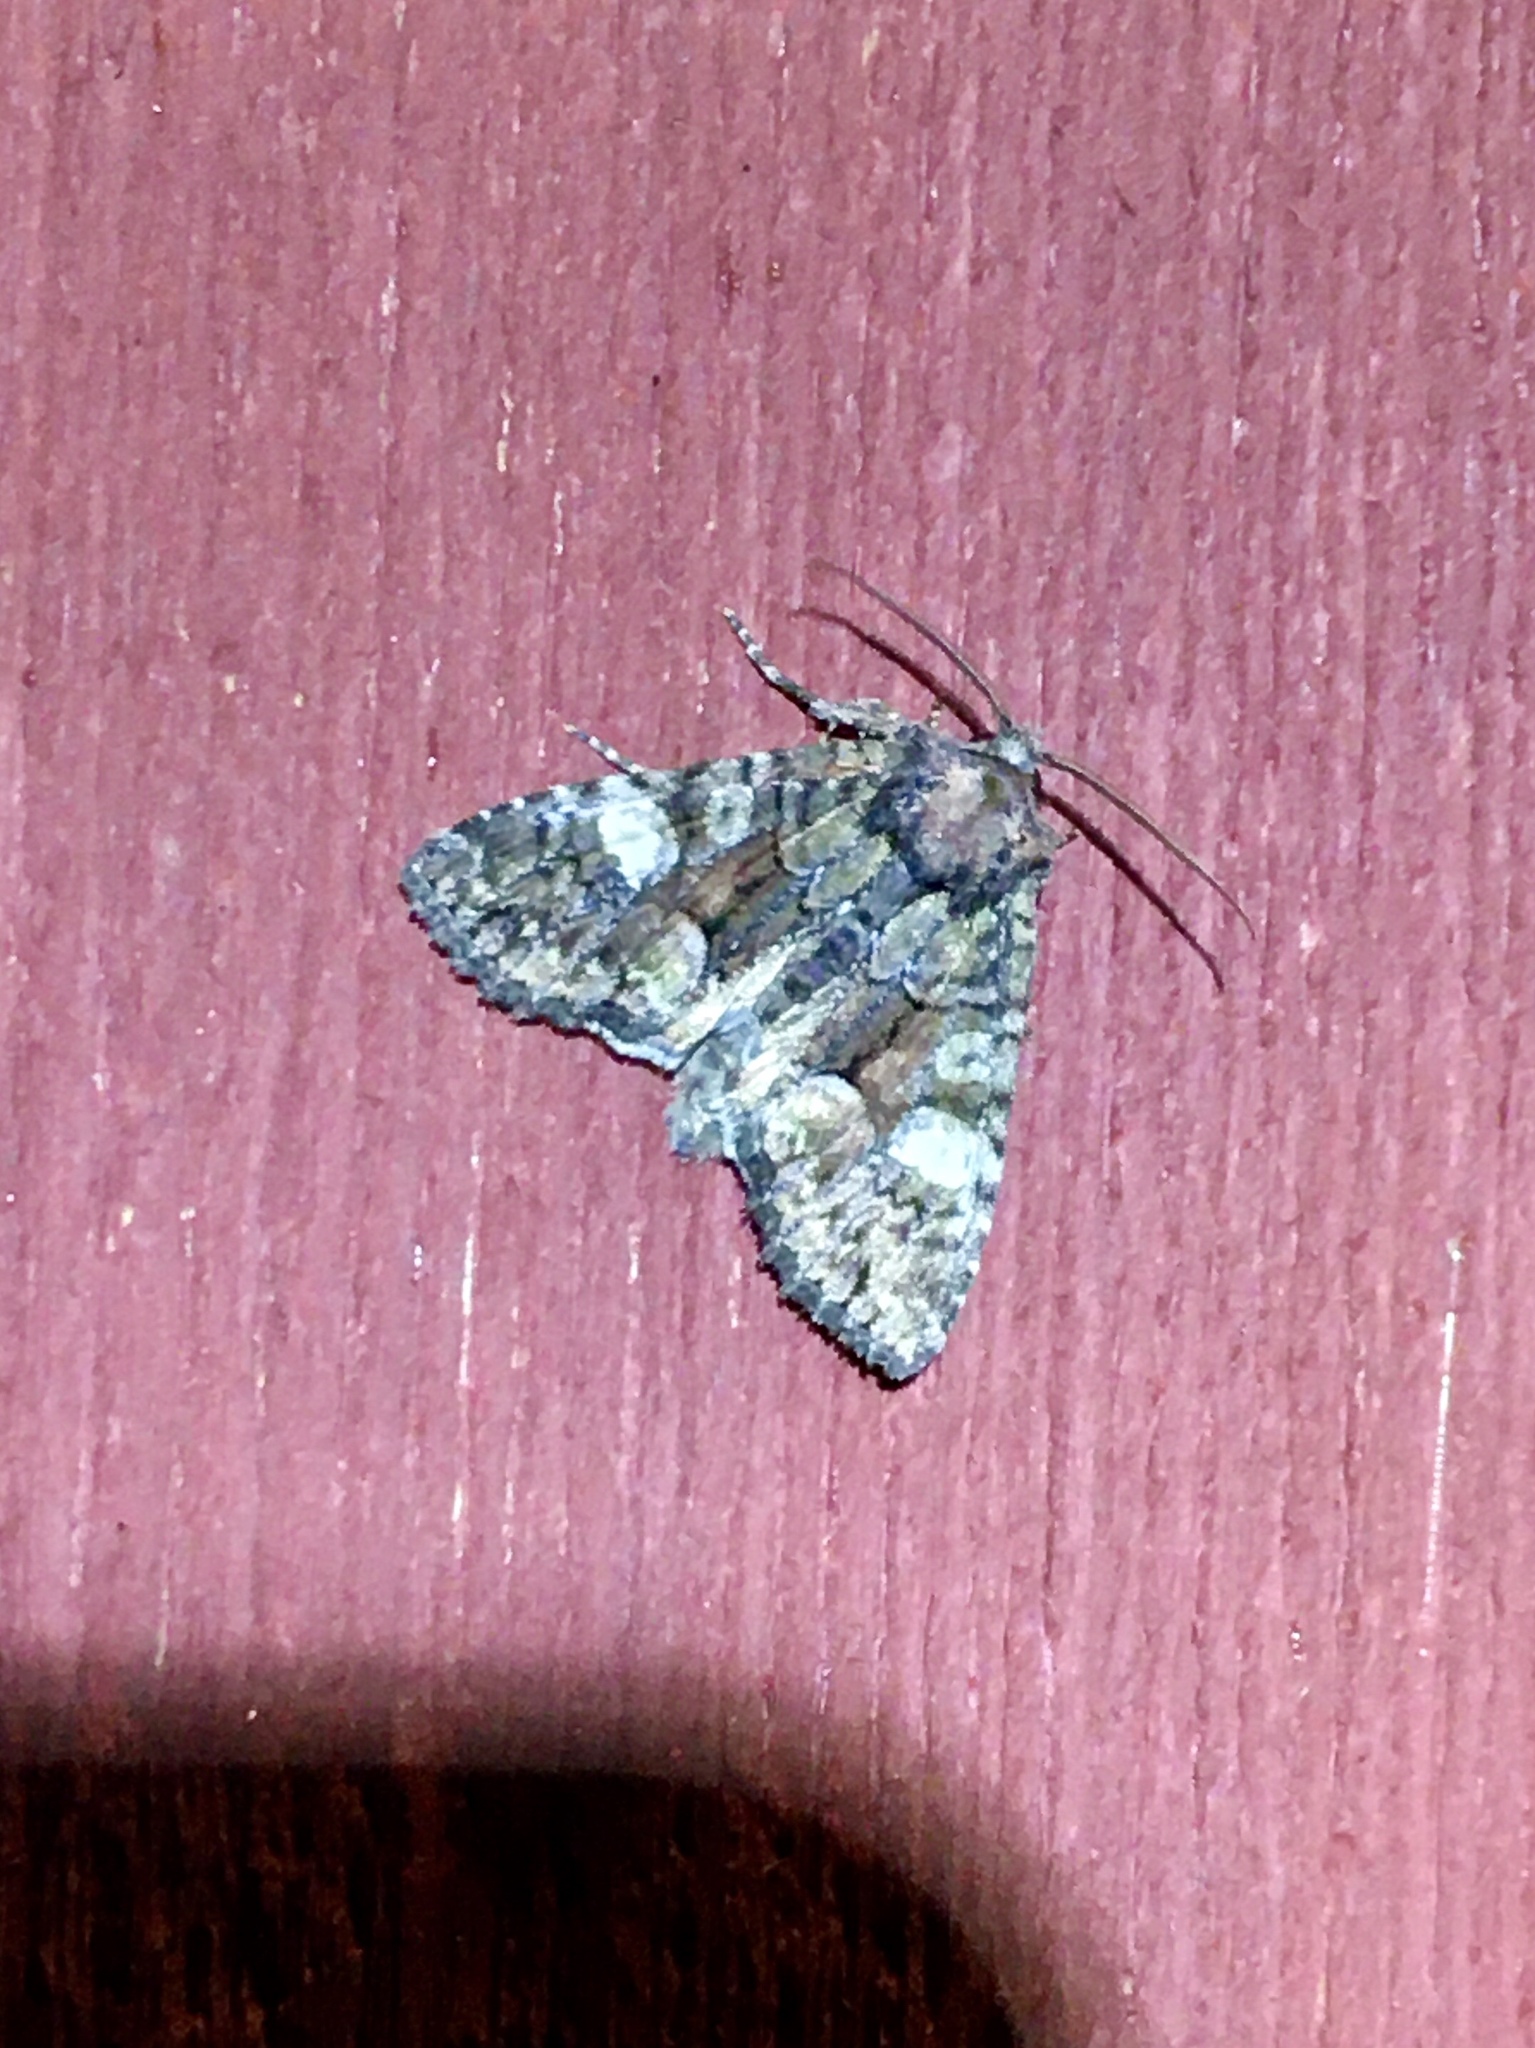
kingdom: Animalia
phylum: Arthropoda
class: Insecta
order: Lepidoptera
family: Noctuidae
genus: Fishia
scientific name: Fishia illocata
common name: Wandering brocade moth
